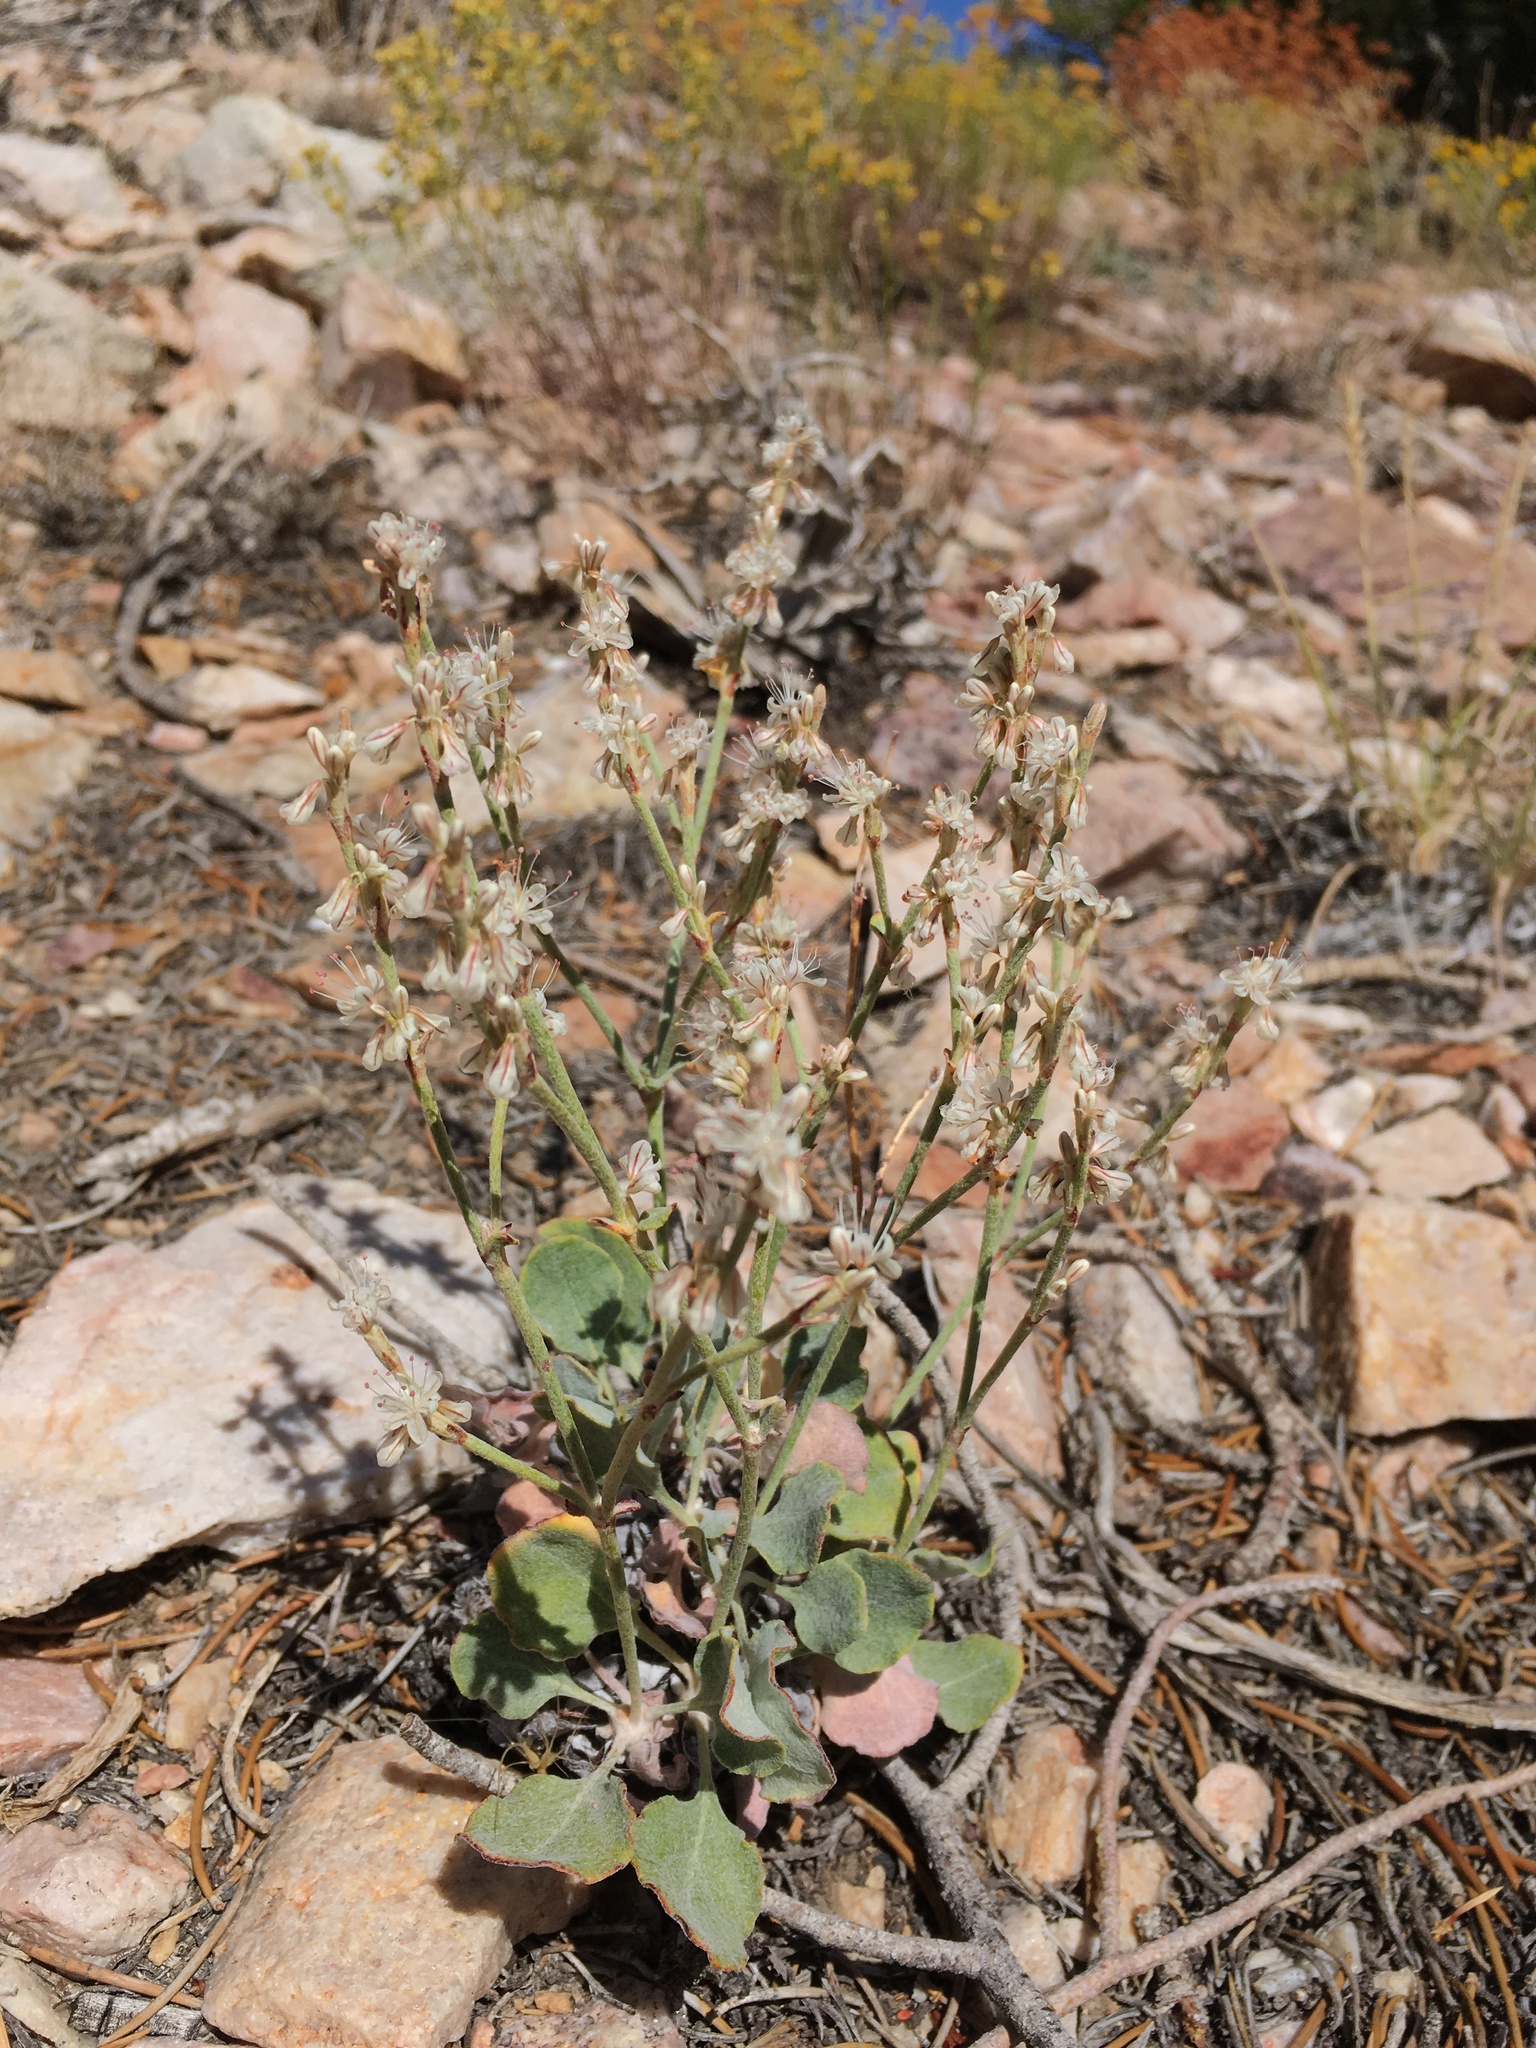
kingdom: Plantae
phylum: Tracheophyta
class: Magnoliopsida
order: Caryophyllales
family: Polygonaceae
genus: Eriogonum
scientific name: Eriogonum panamintense
